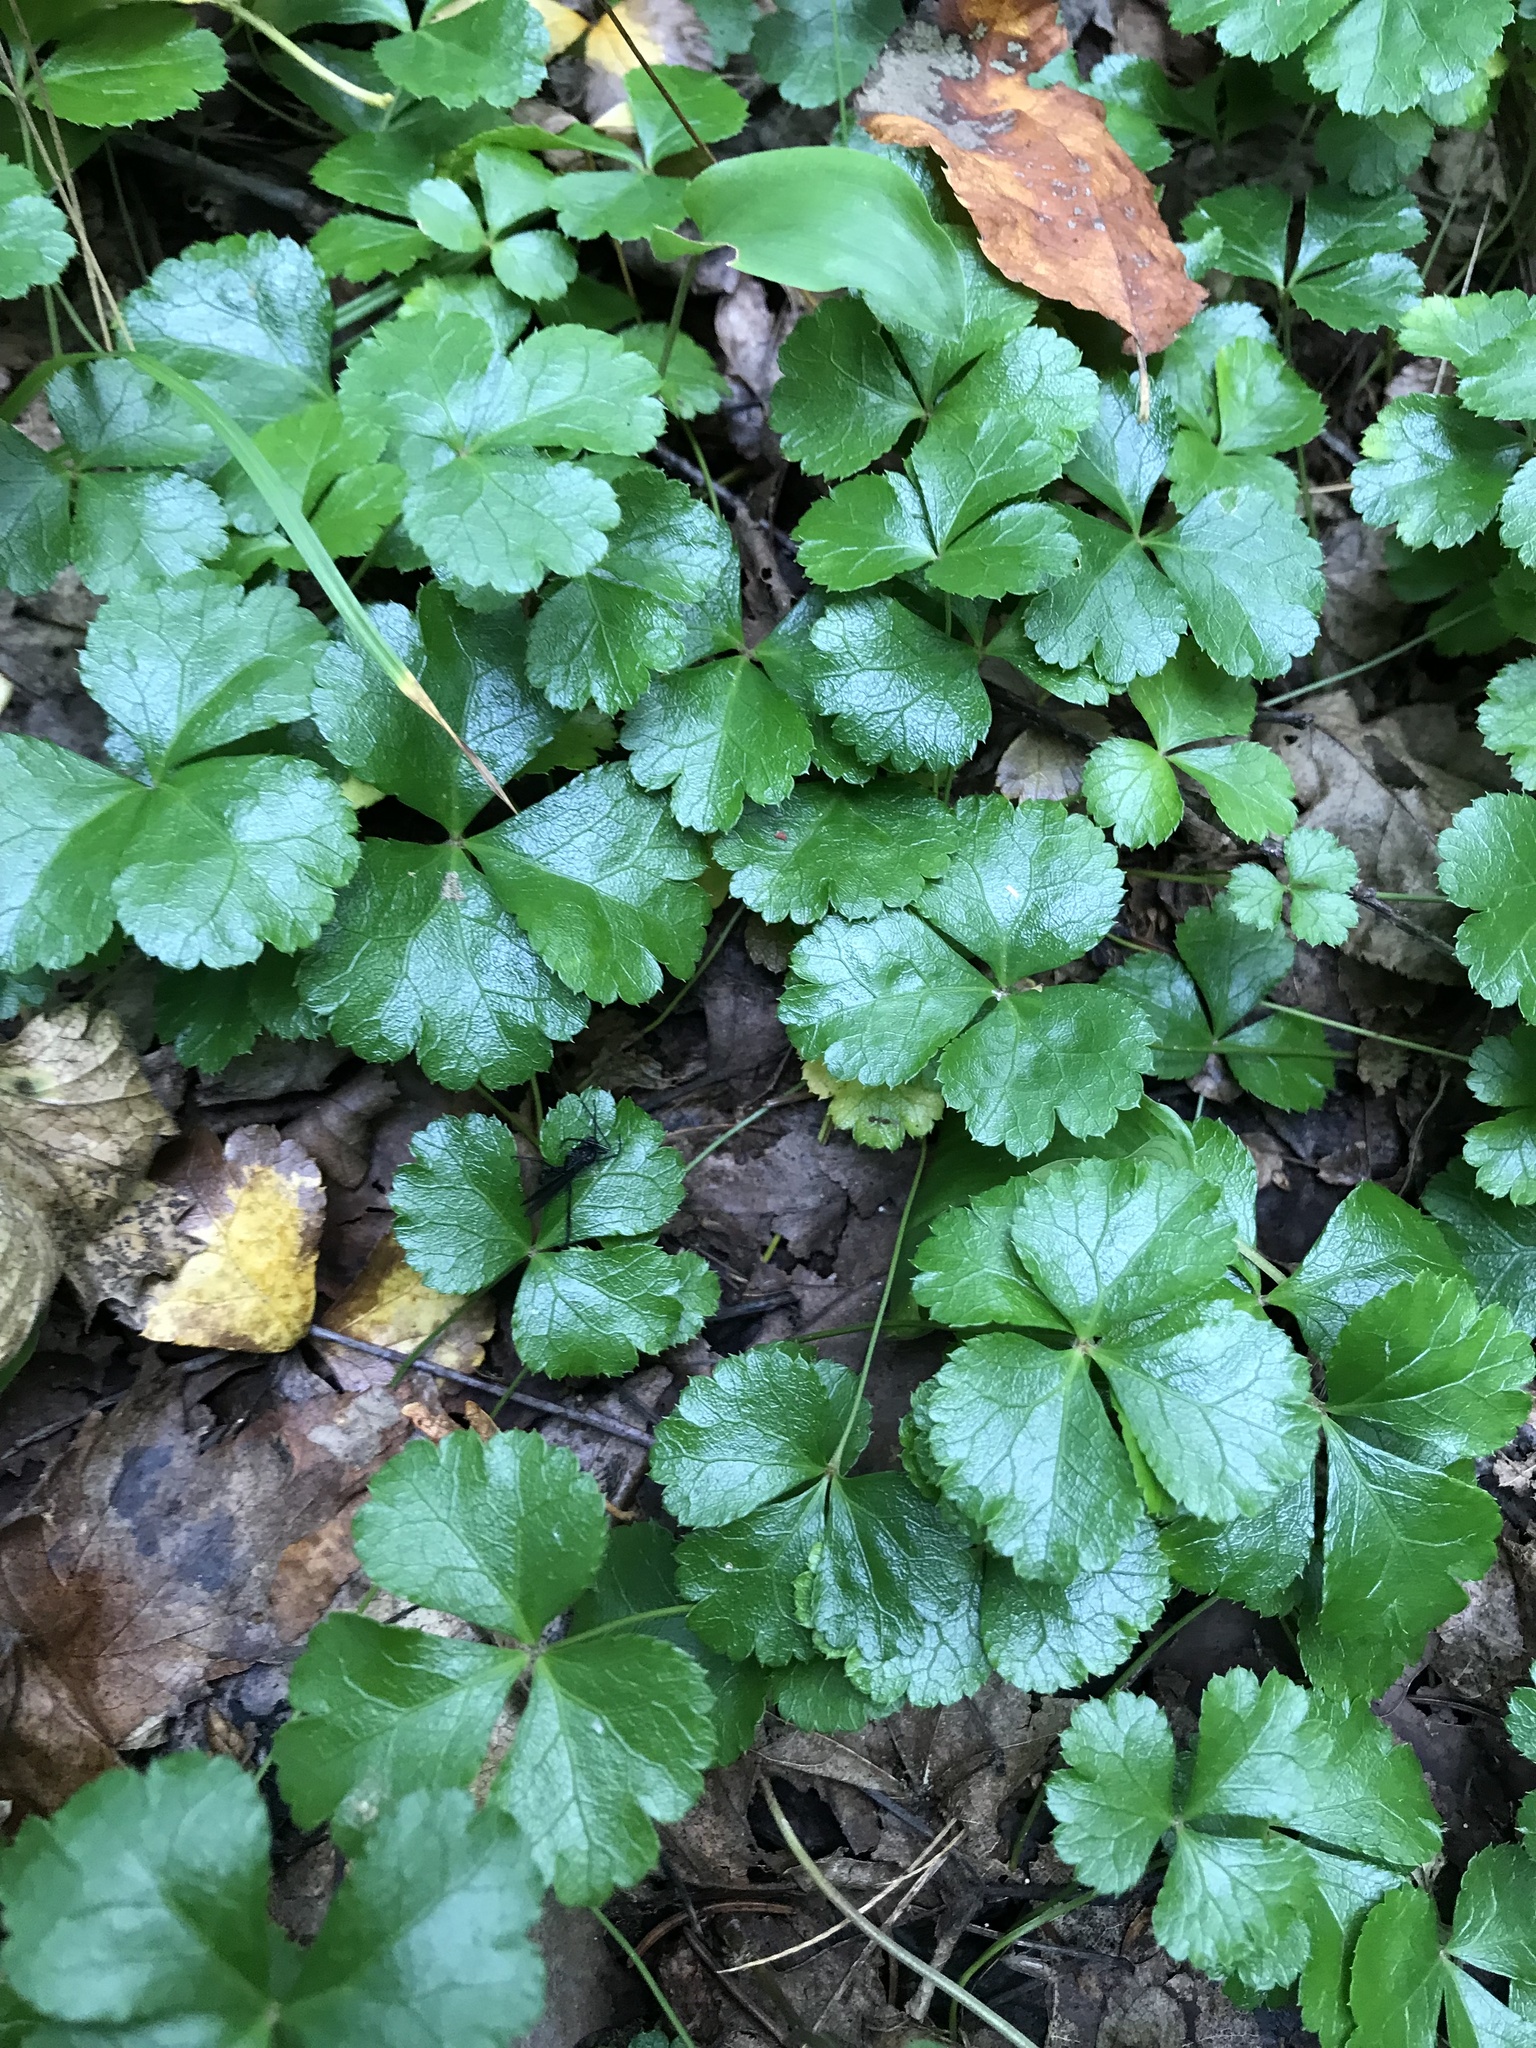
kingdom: Plantae
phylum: Tracheophyta
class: Magnoliopsida
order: Ranunculales
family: Ranunculaceae
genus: Coptis
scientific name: Coptis trifolia
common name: Canker-root
